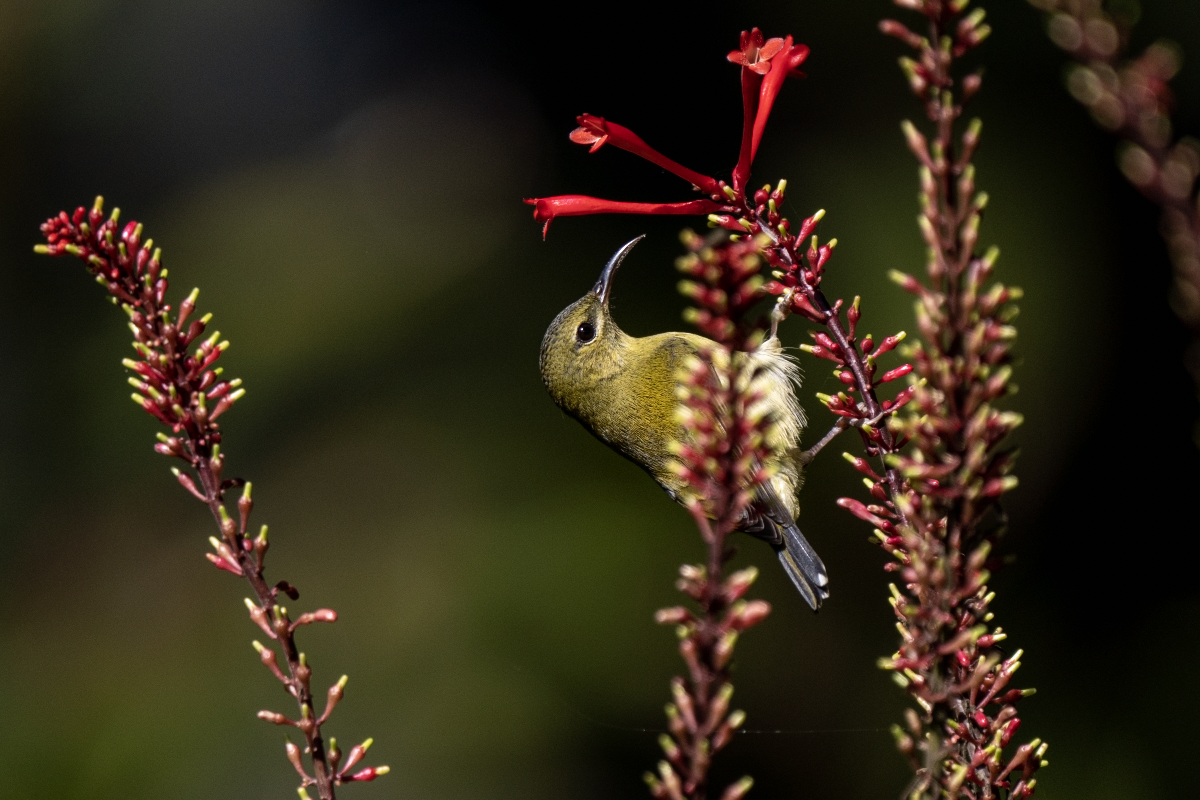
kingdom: Animalia
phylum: Chordata
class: Aves
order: Passeriformes
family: Nectariniidae
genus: Aethopyga
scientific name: Aethopyga christinae
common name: Fork-tailed sunbird
